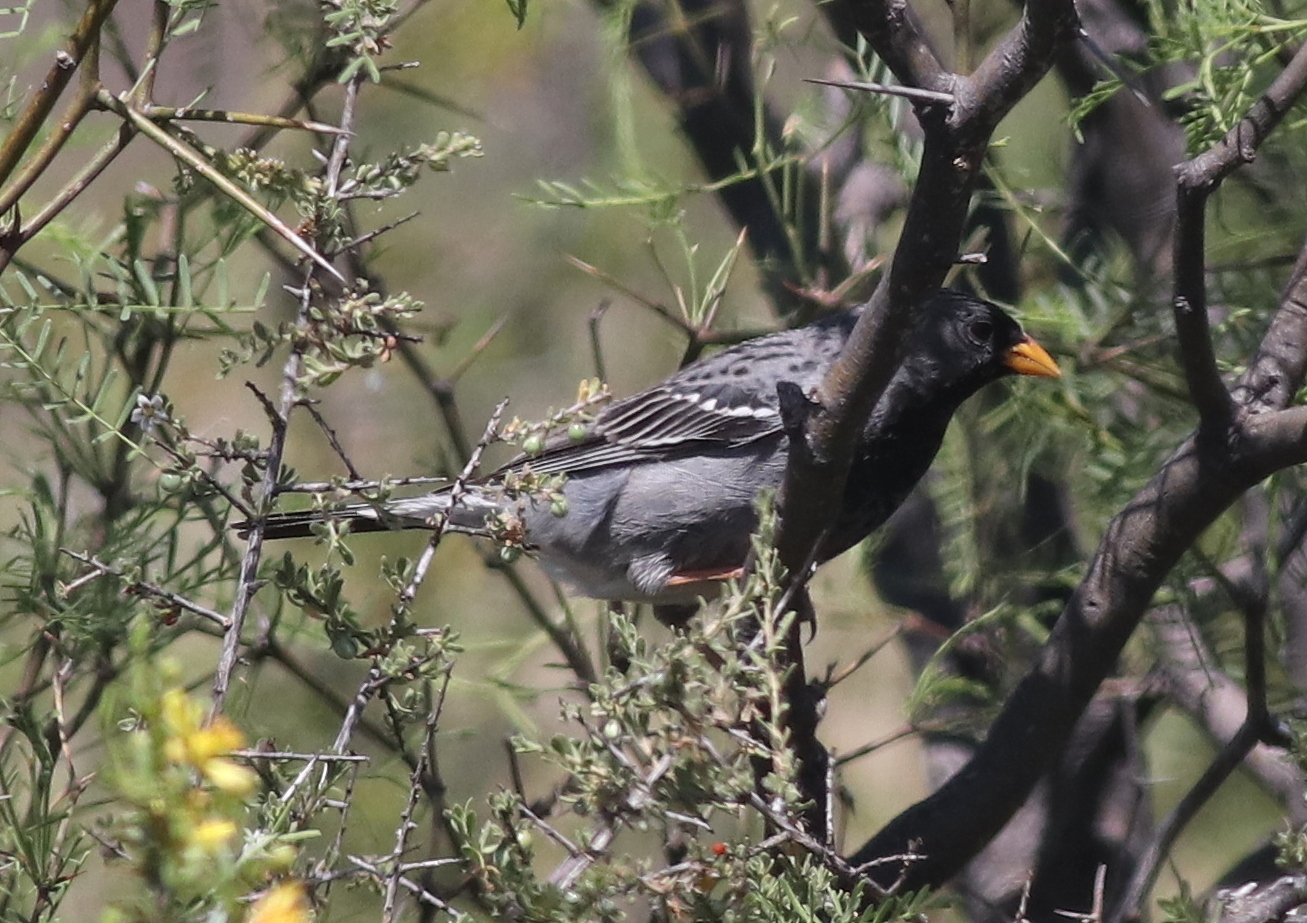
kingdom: Animalia
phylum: Chordata
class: Aves
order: Passeriformes
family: Thraupidae
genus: Rhopospina
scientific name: Rhopospina fruticeti
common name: Mourning sierra finch
